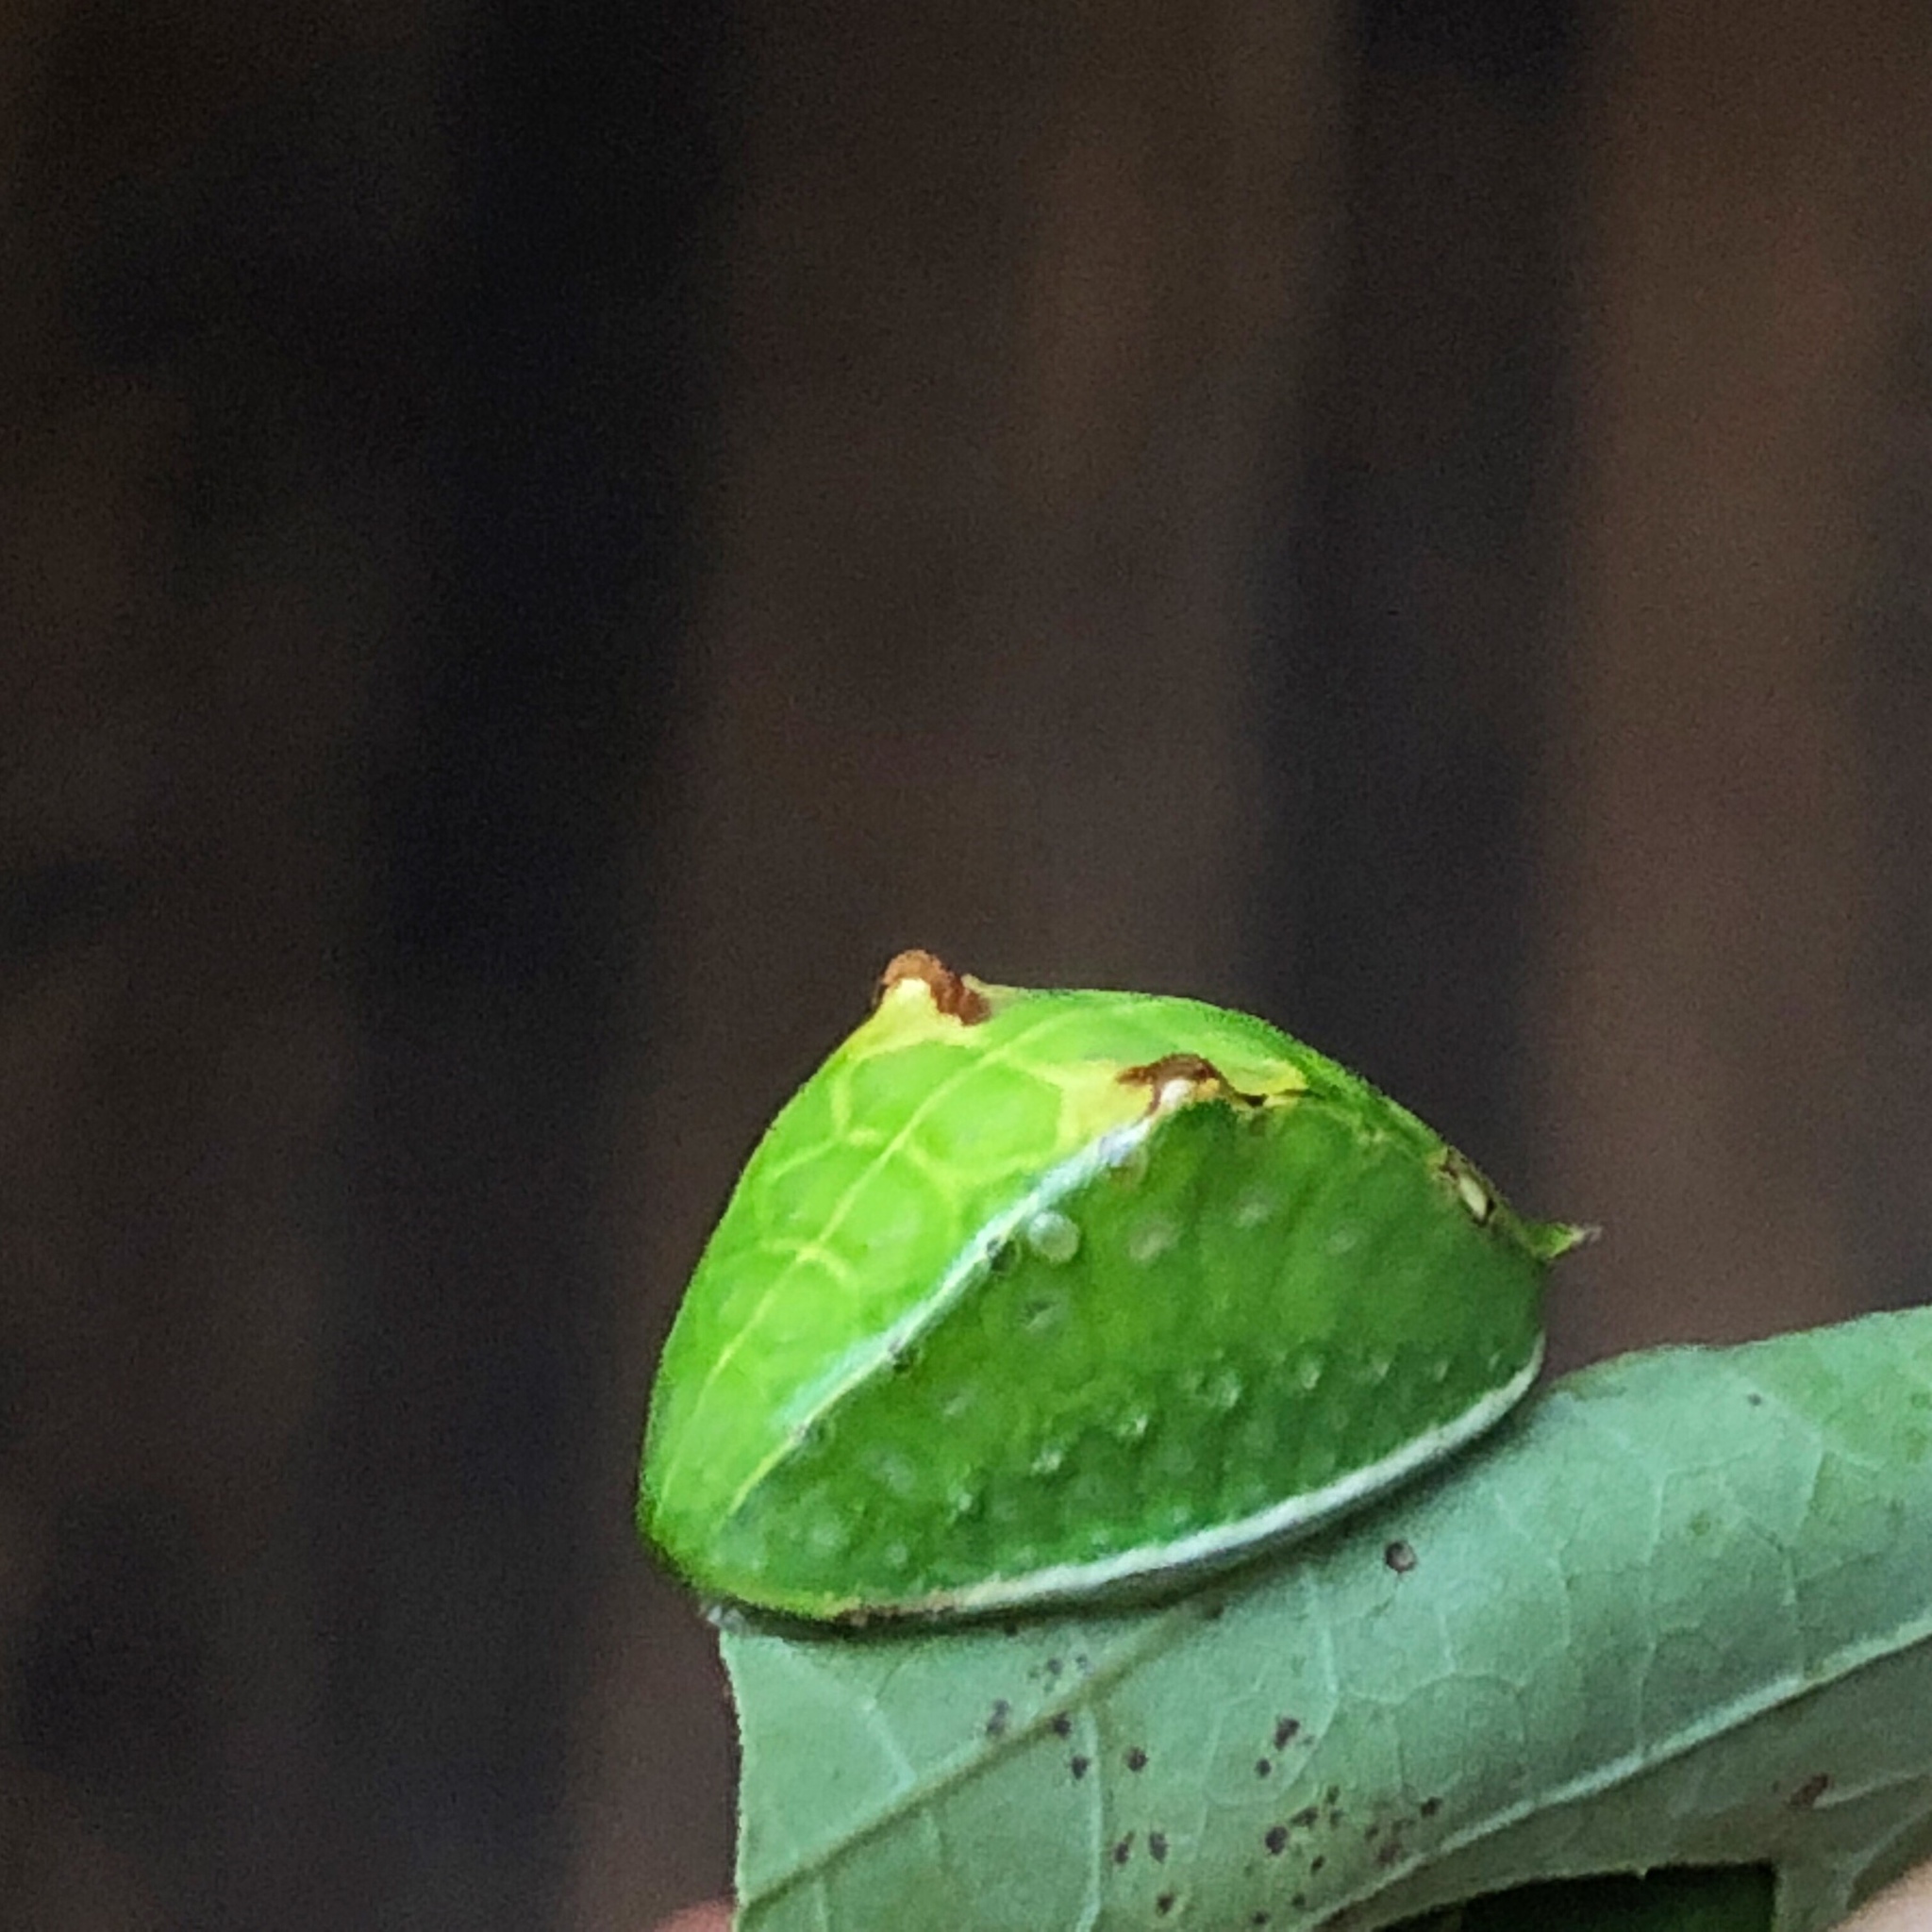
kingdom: Animalia
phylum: Arthropoda
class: Insecta
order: Lepidoptera
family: Limacodidae
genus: Prolimacodes
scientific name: Prolimacodes badia
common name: Skiff moth
